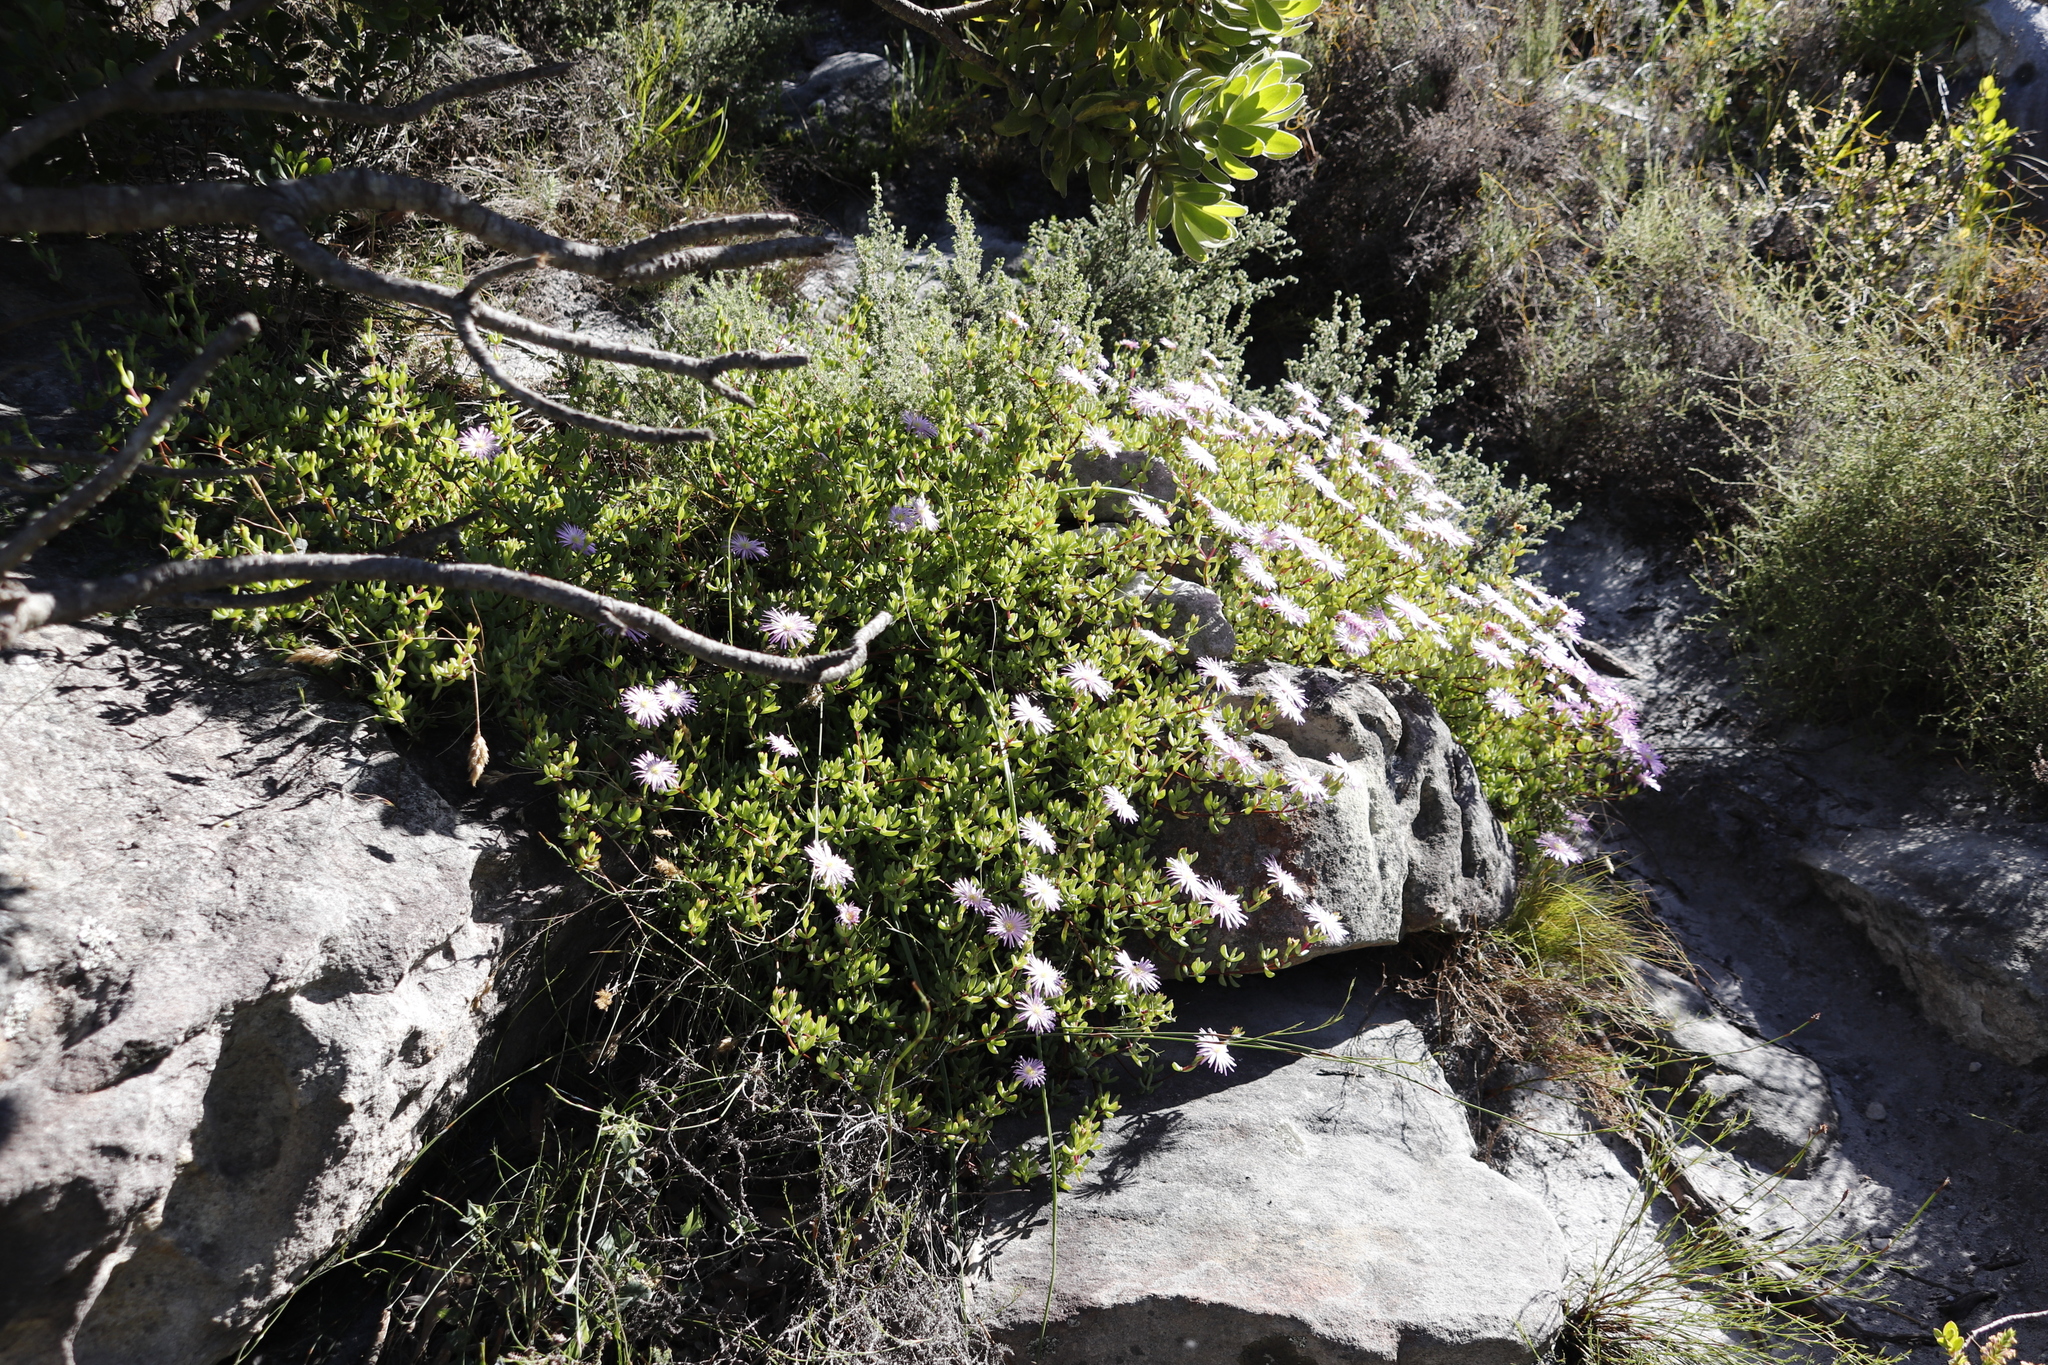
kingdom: Plantae
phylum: Tracheophyta
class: Magnoliopsida
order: Caryophyllales
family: Aizoaceae
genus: Oscularia
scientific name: Oscularia falciformis
